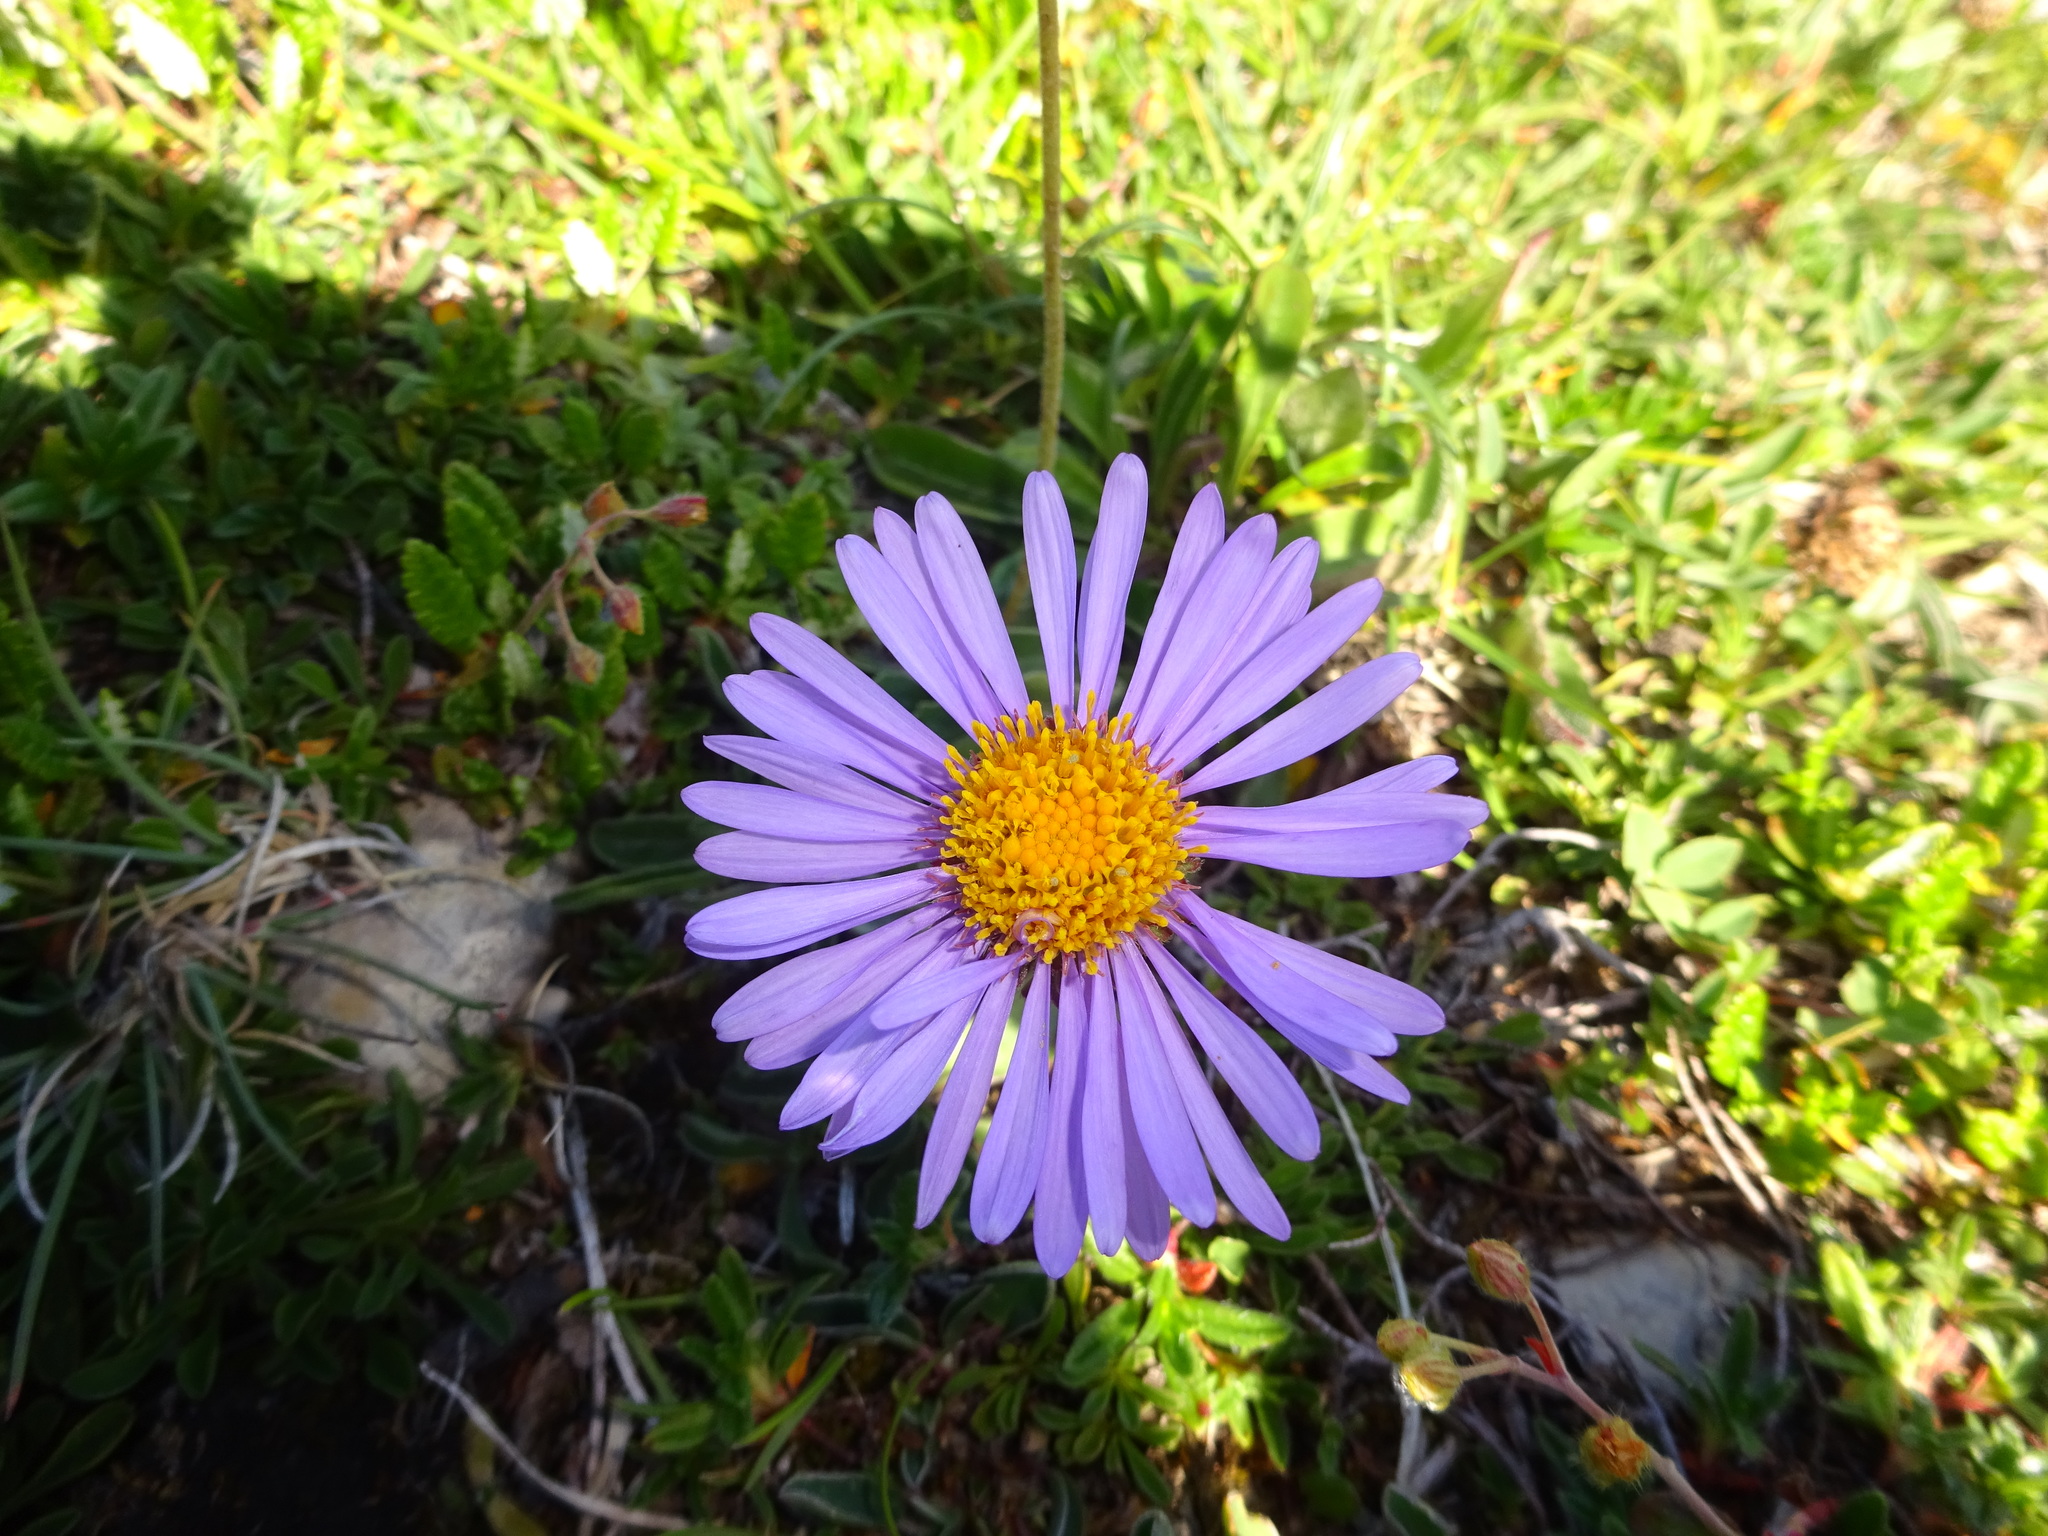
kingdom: Plantae
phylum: Tracheophyta
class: Magnoliopsida
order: Asterales
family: Asteraceae
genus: Aster
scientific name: Aster alpinus
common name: Alpine aster
